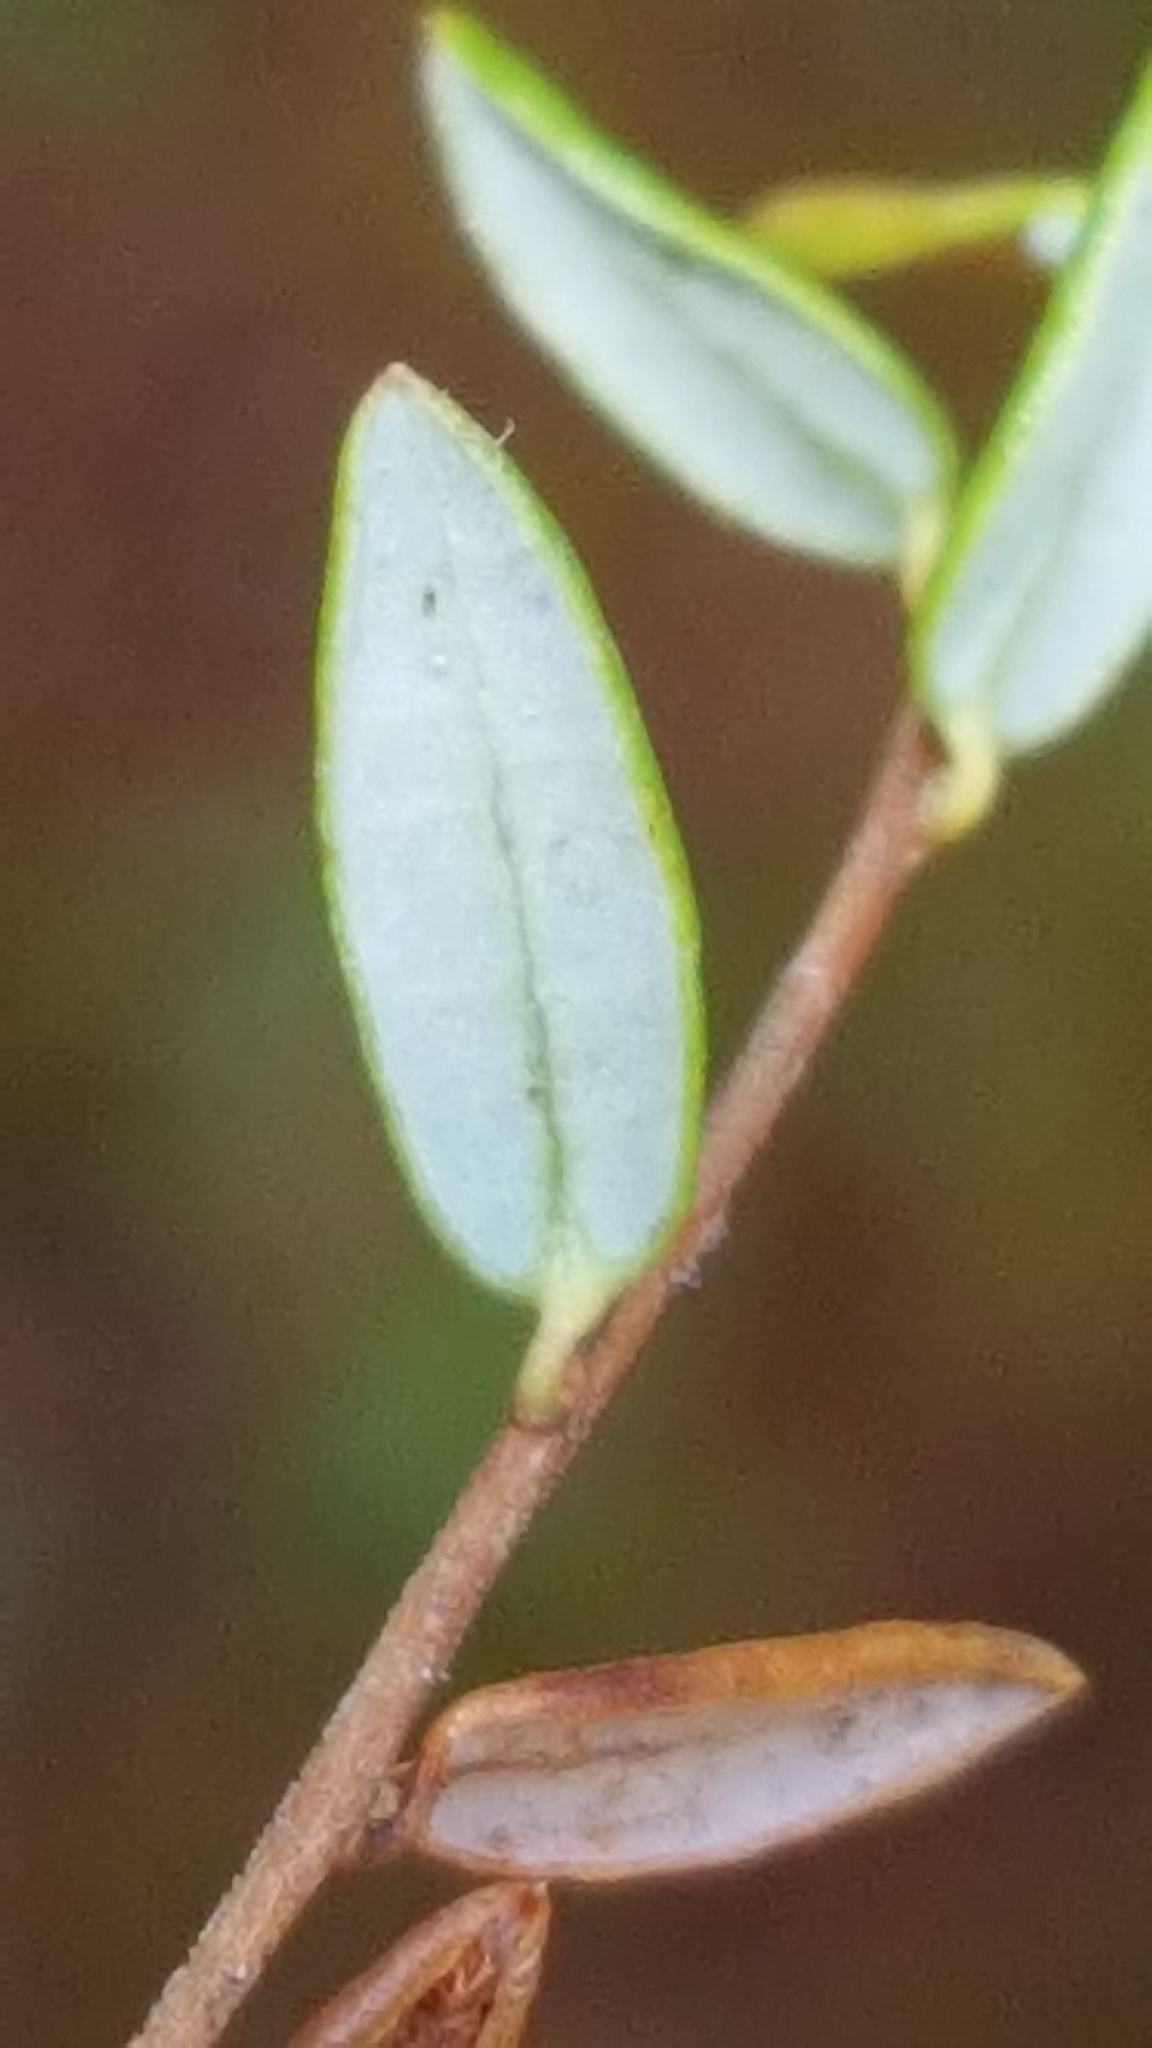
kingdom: Plantae
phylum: Tracheophyta
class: Magnoliopsida
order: Ericales
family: Ericaceae
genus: Vaccinium
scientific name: Vaccinium oxycoccos
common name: Cranberry
